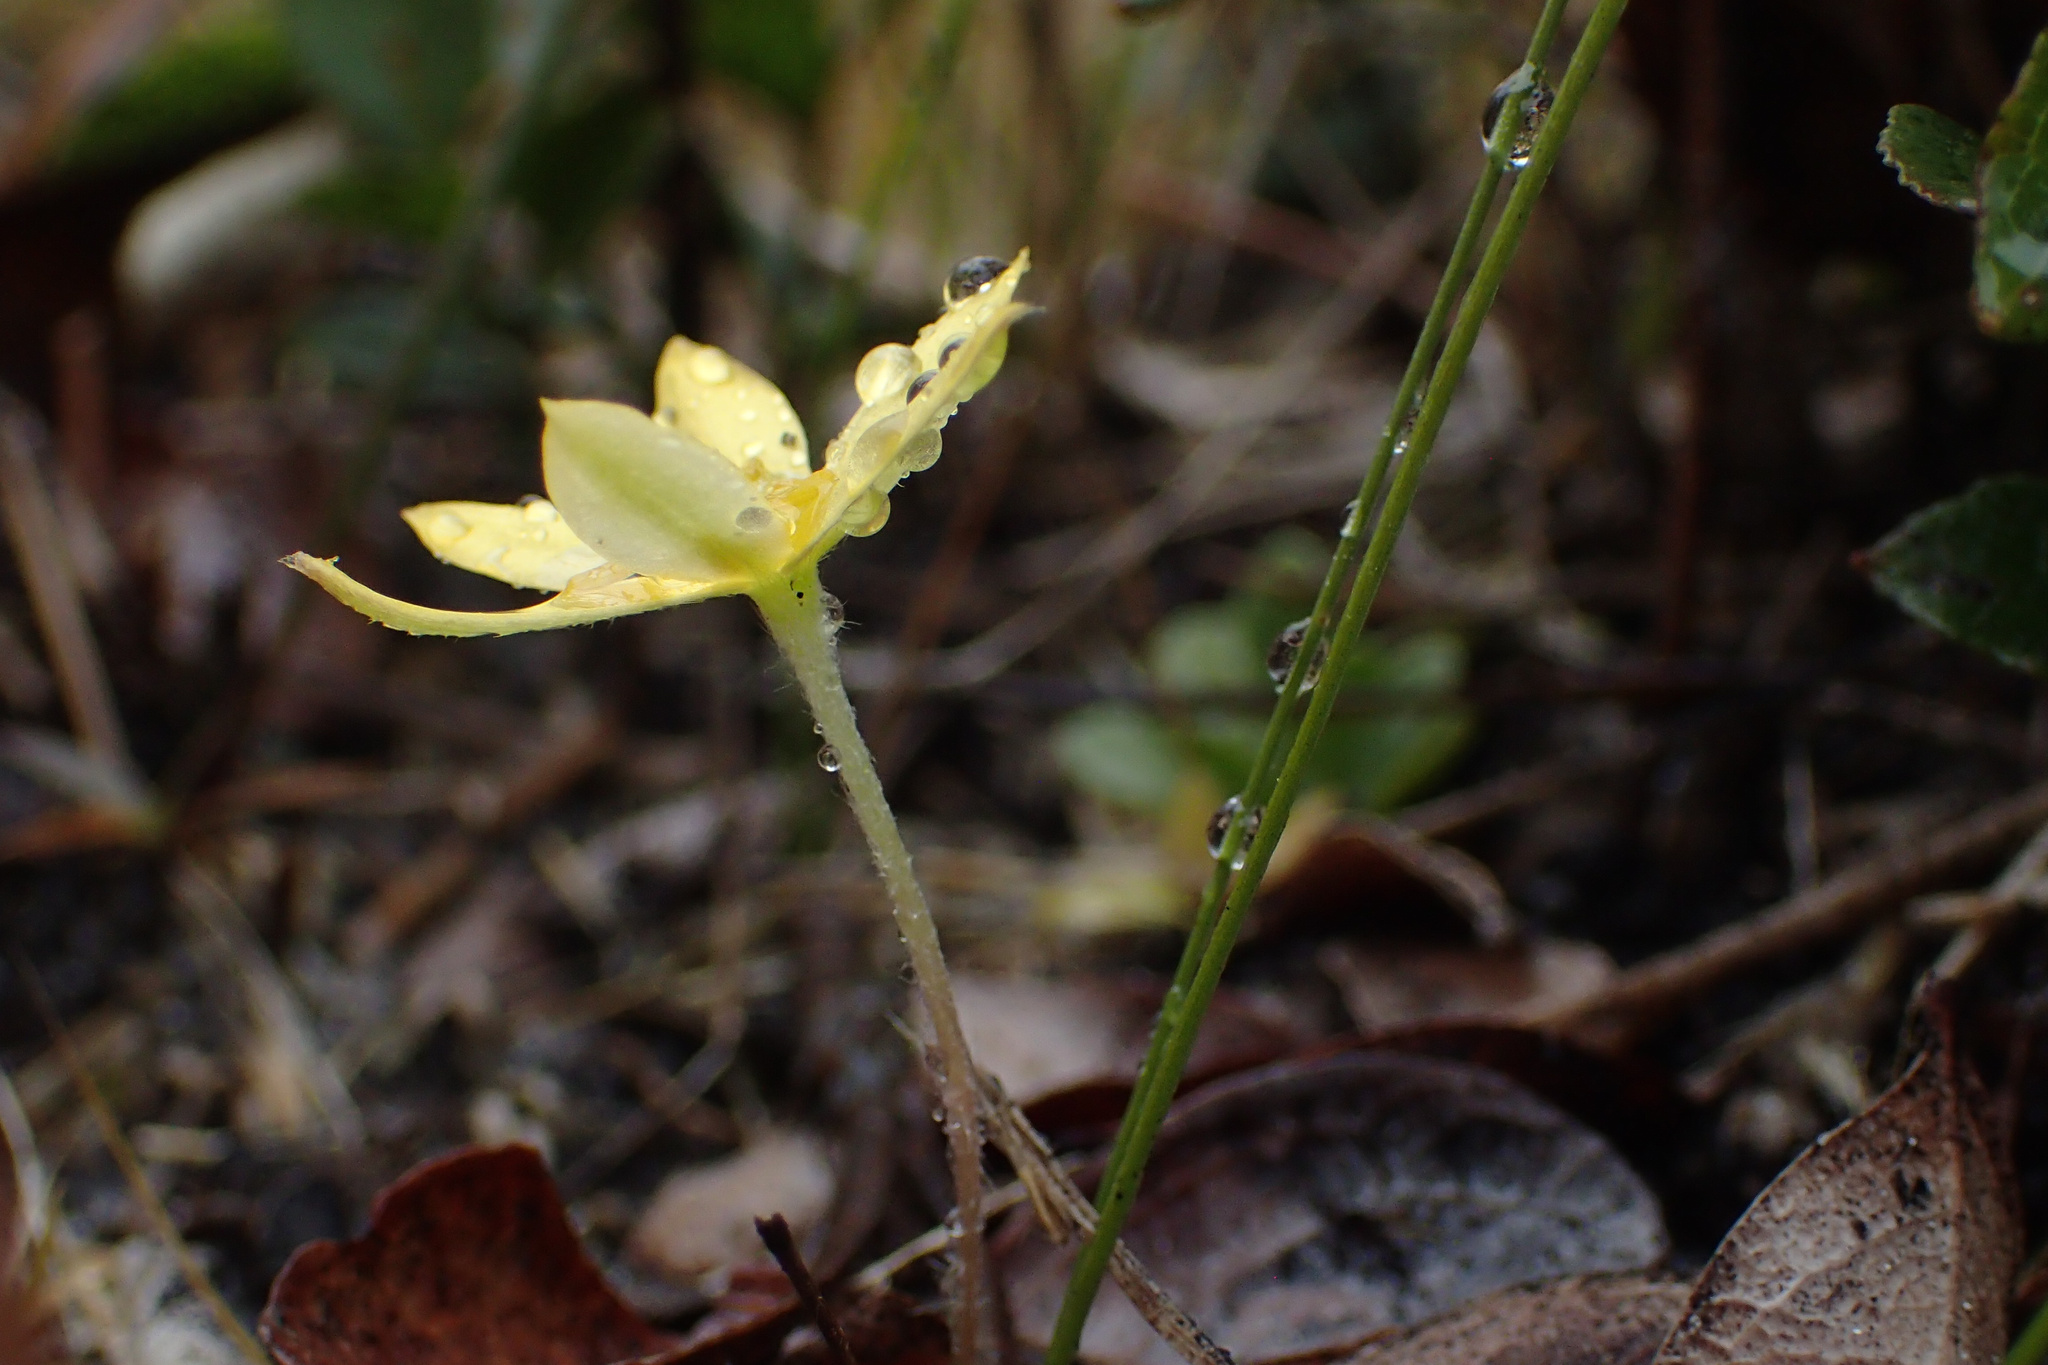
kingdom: Plantae
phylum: Tracheophyta
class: Liliopsida
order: Asparagales
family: Hypoxidaceae
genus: Hypoxis
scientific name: Hypoxis juncea
